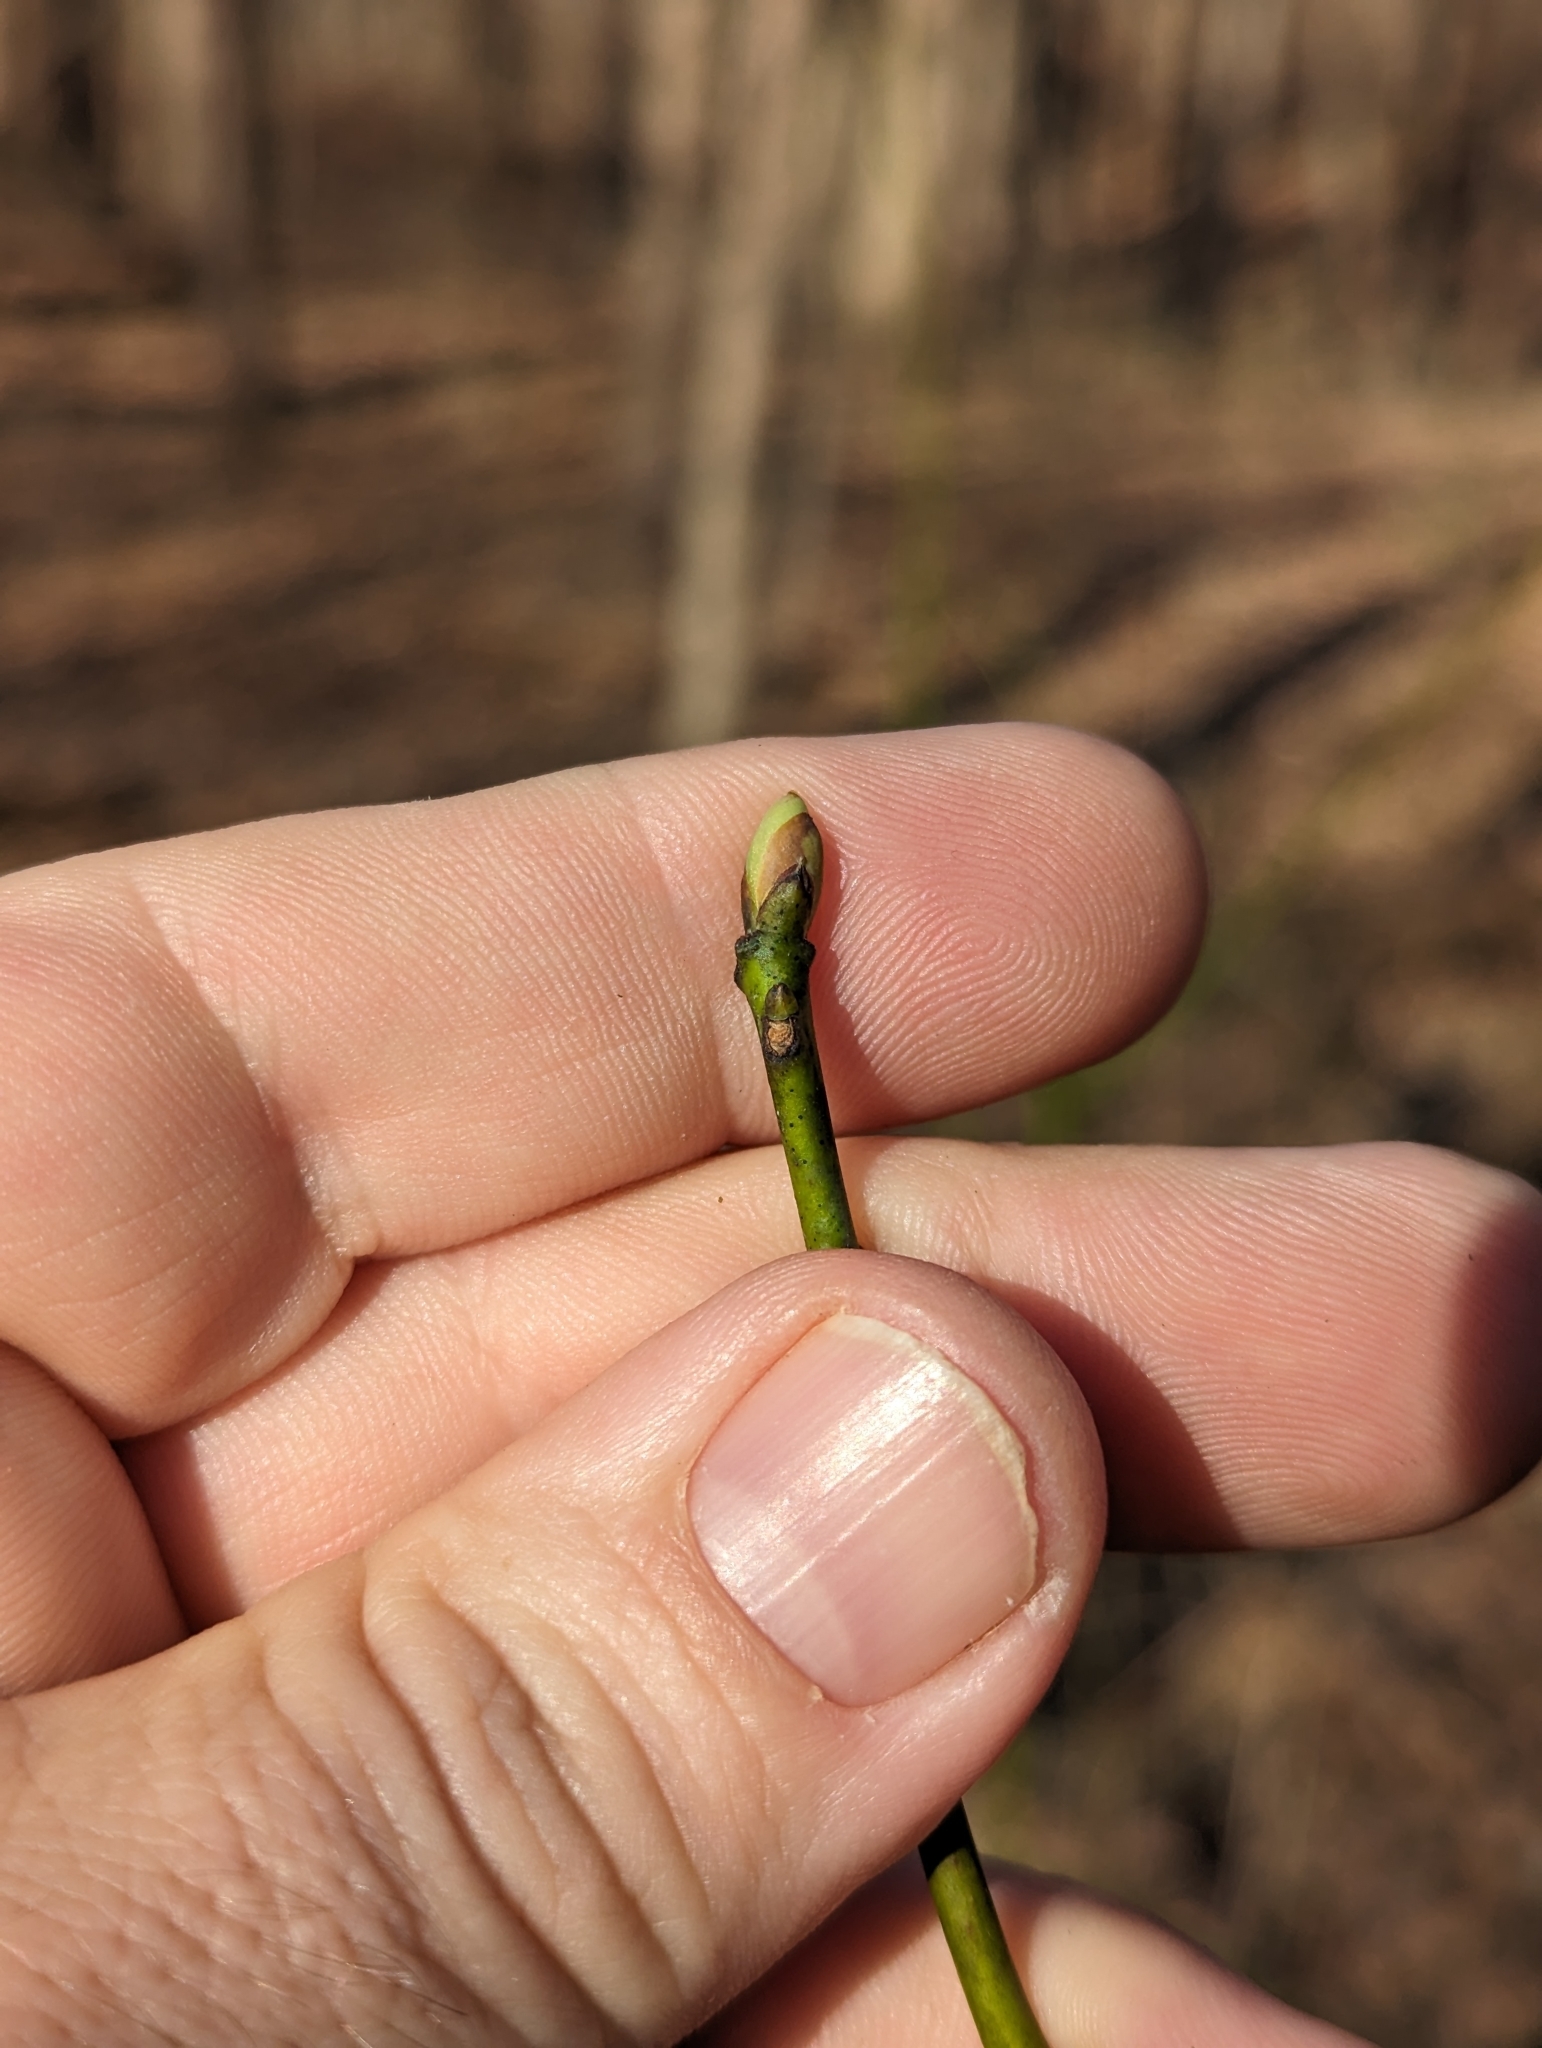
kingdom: Plantae
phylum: Tracheophyta
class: Magnoliopsida
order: Laurales
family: Lauraceae
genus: Sassafras
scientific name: Sassafras albidum
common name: Sassafras
